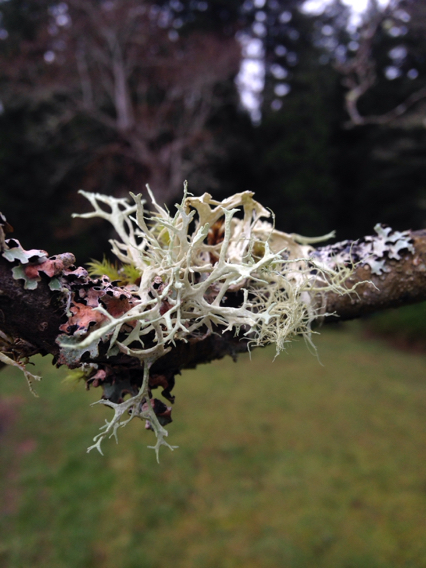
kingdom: Fungi
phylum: Ascomycota
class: Lecanoromycetes
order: Lecanorales
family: Parmeliaceae
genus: Evernia
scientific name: Evernia prunastri
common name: Oak moss
